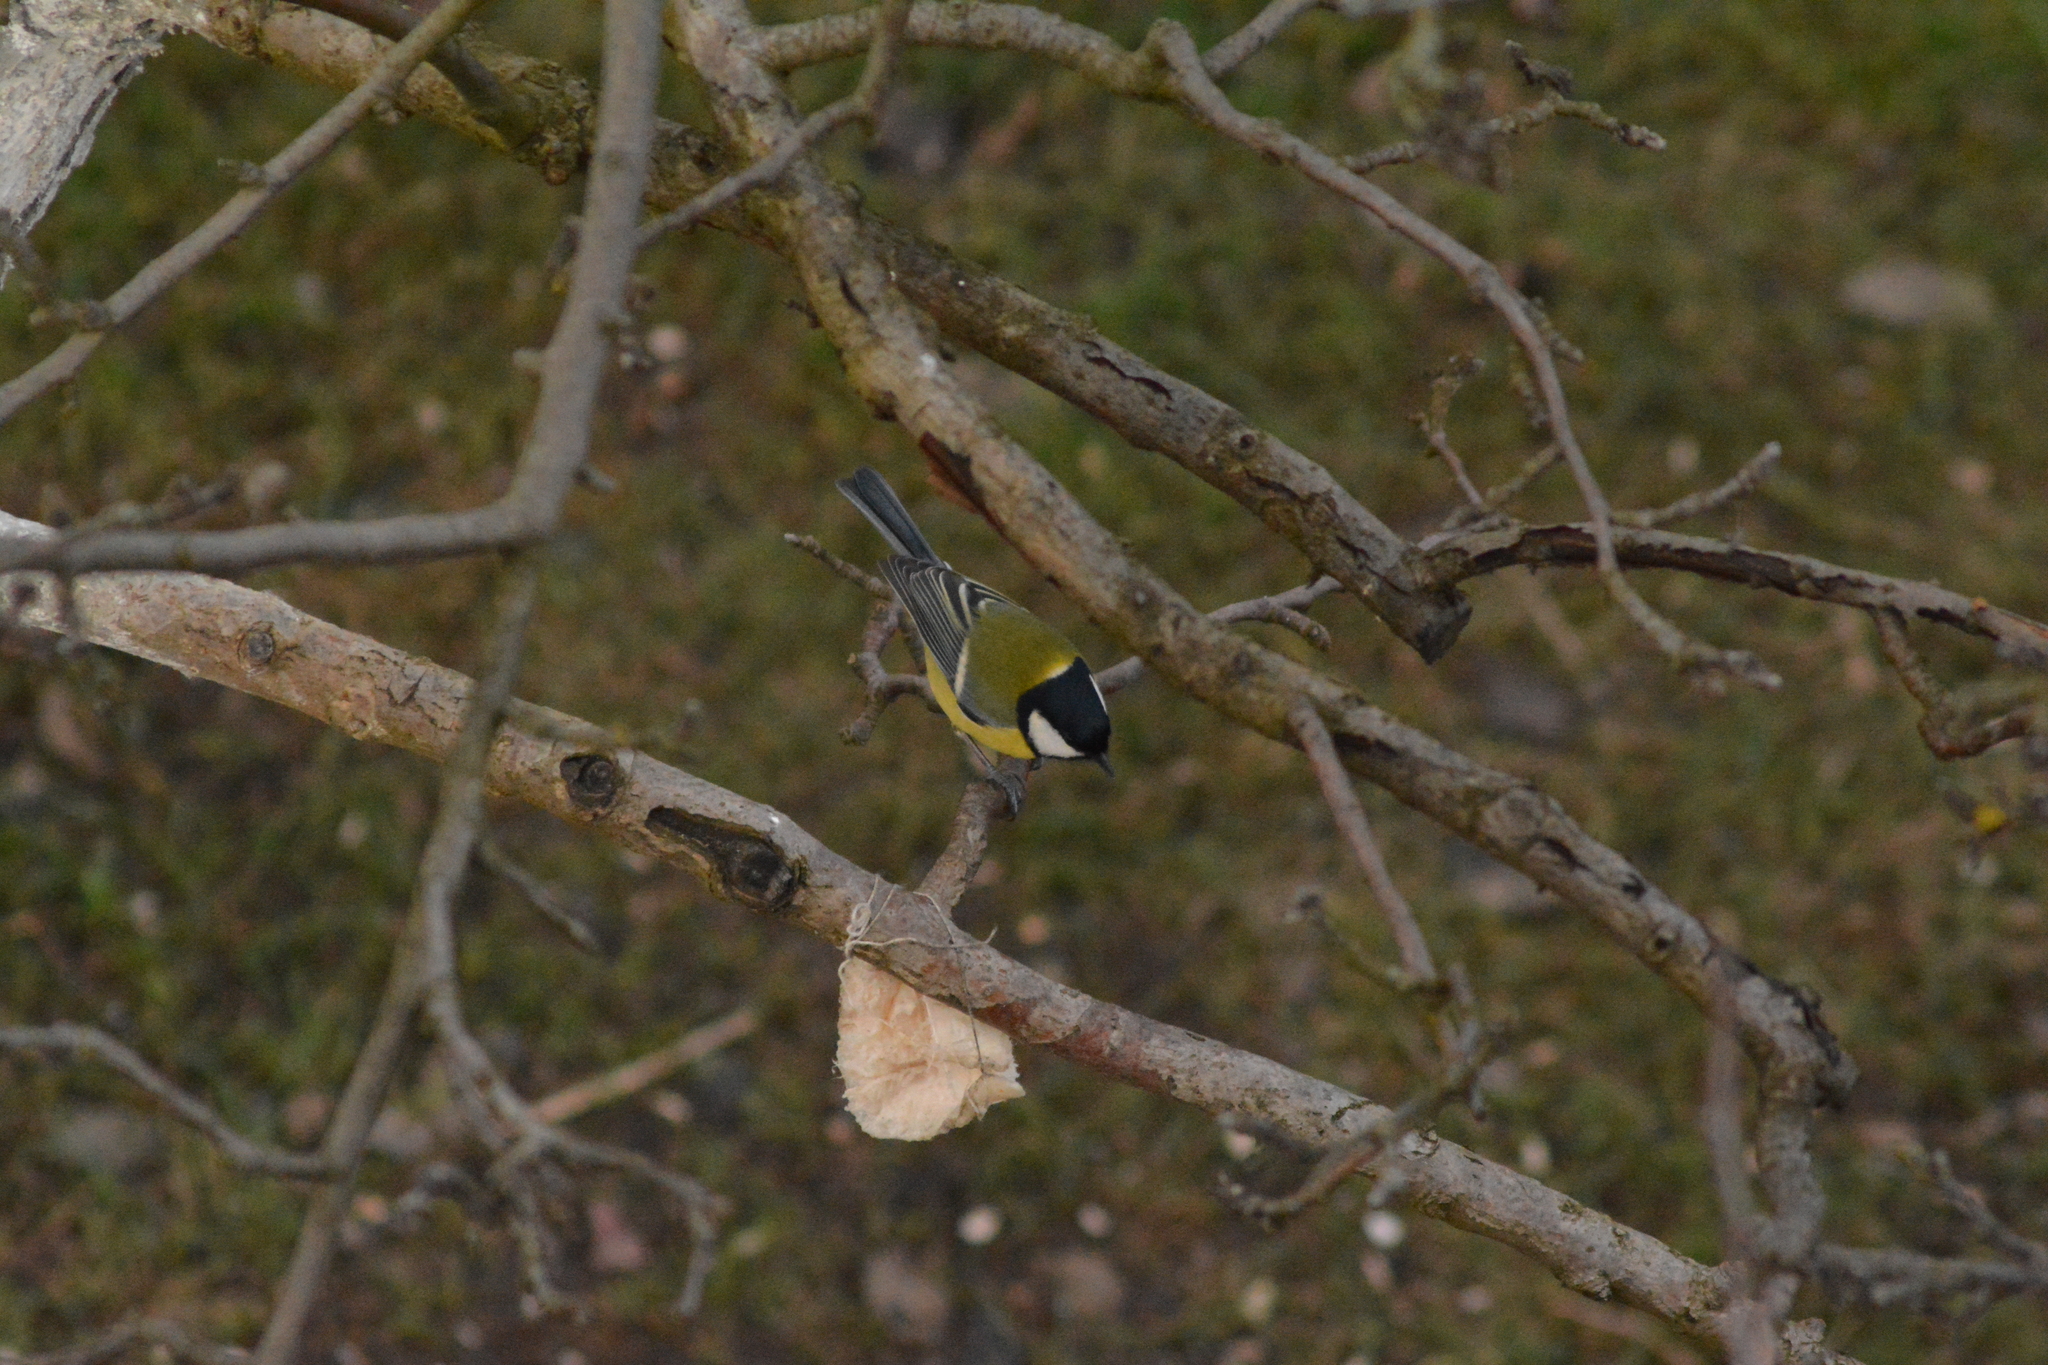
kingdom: Animalia
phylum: Chordata
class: Aves
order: Passeriformes
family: Paridae
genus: Parus
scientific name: Parus major
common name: Great tit
